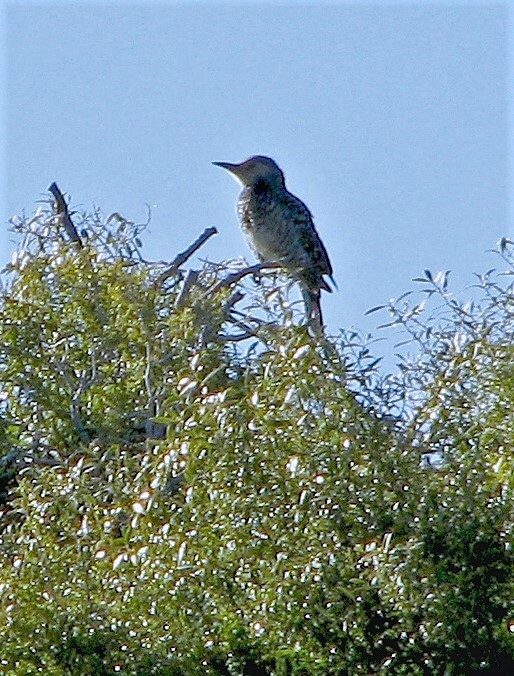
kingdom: Animalia
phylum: Chordata
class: Aves
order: Piciformes
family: Picidae
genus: Colaptes
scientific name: Colaptes pitius
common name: Chilean flicker
